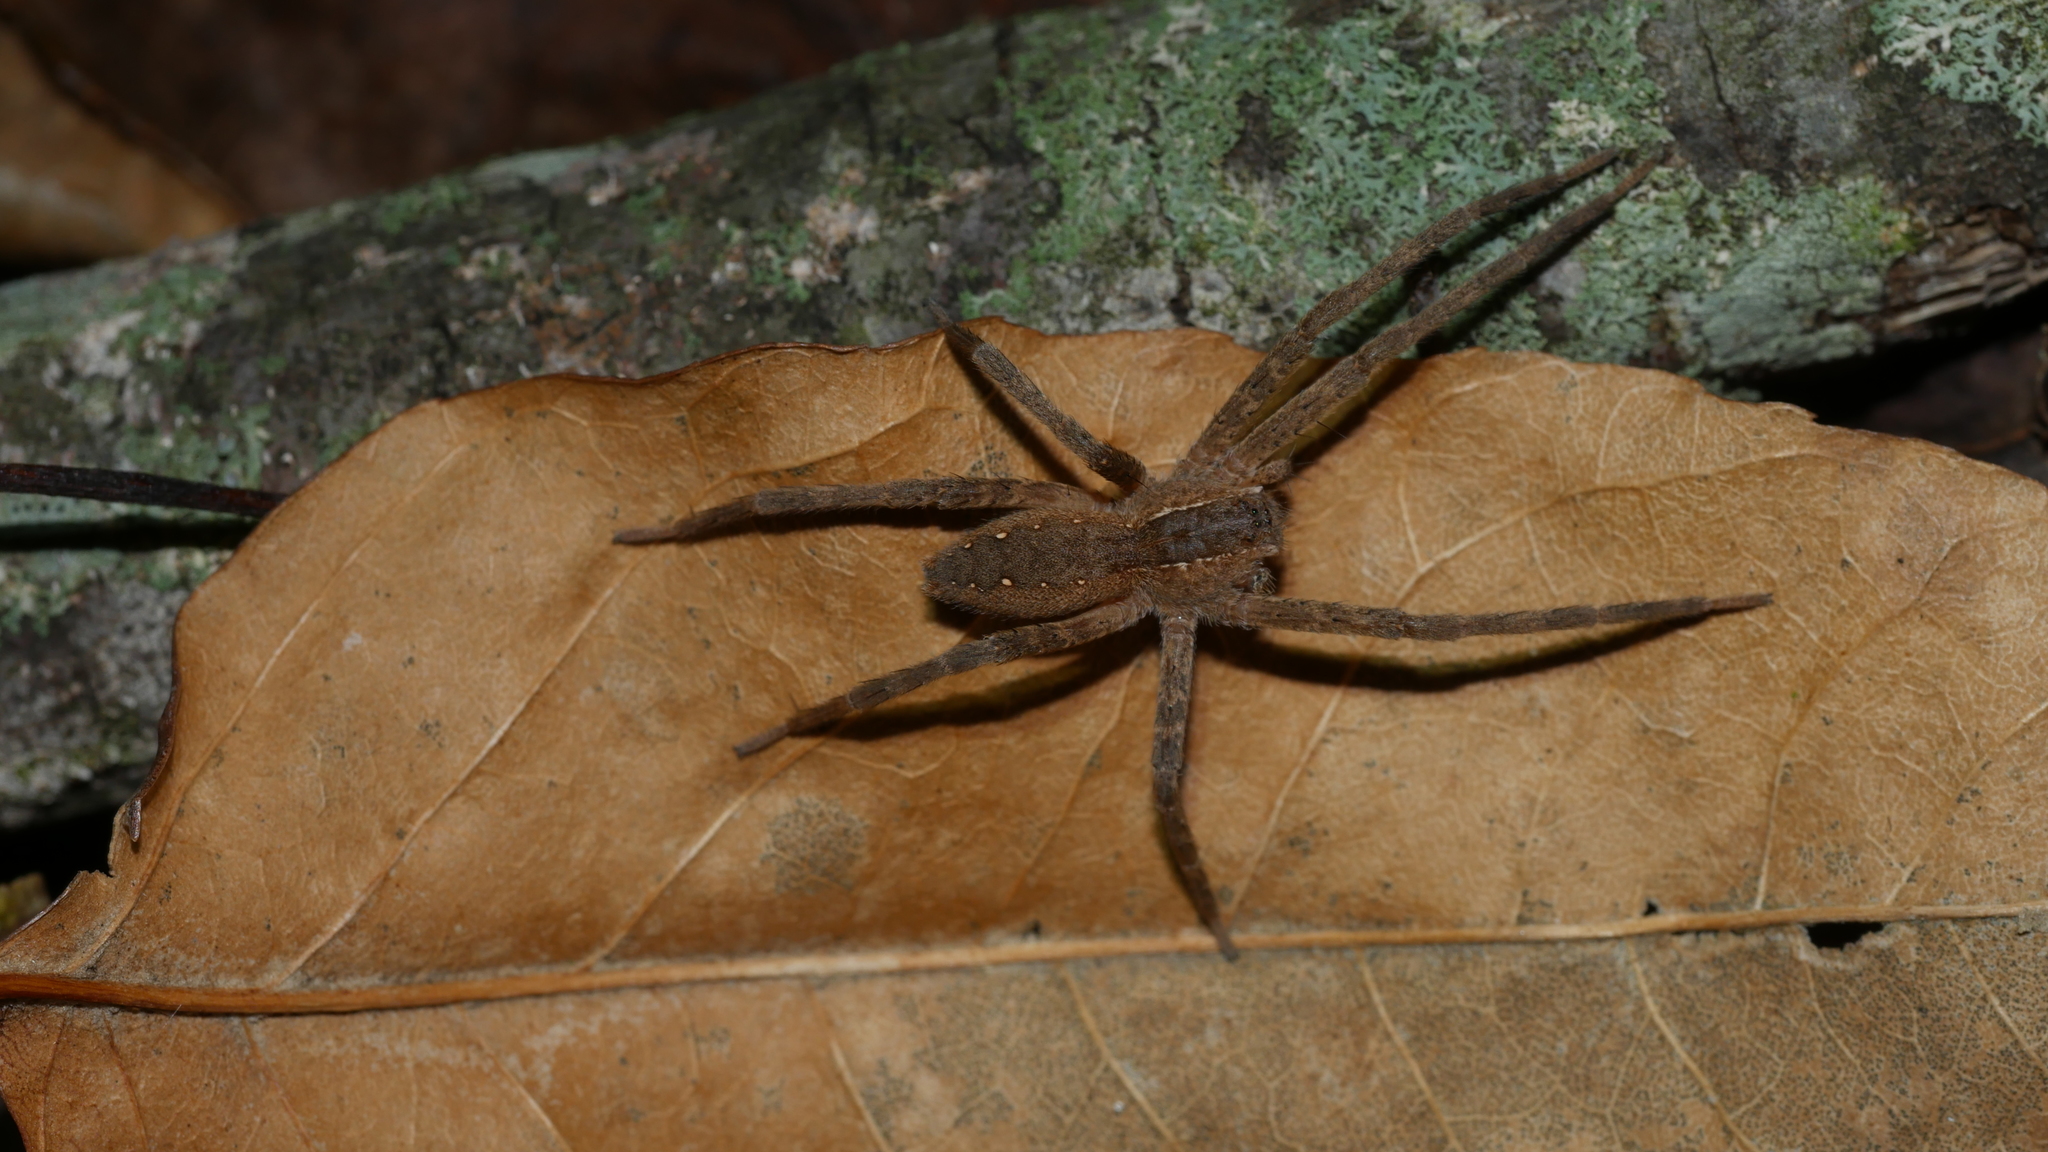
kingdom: Animalia
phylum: Arthropoda
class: Arachnida
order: Araneae
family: Pisauridae
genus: Pisaurina
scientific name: Pisaurina mira
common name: American nursery web spider
